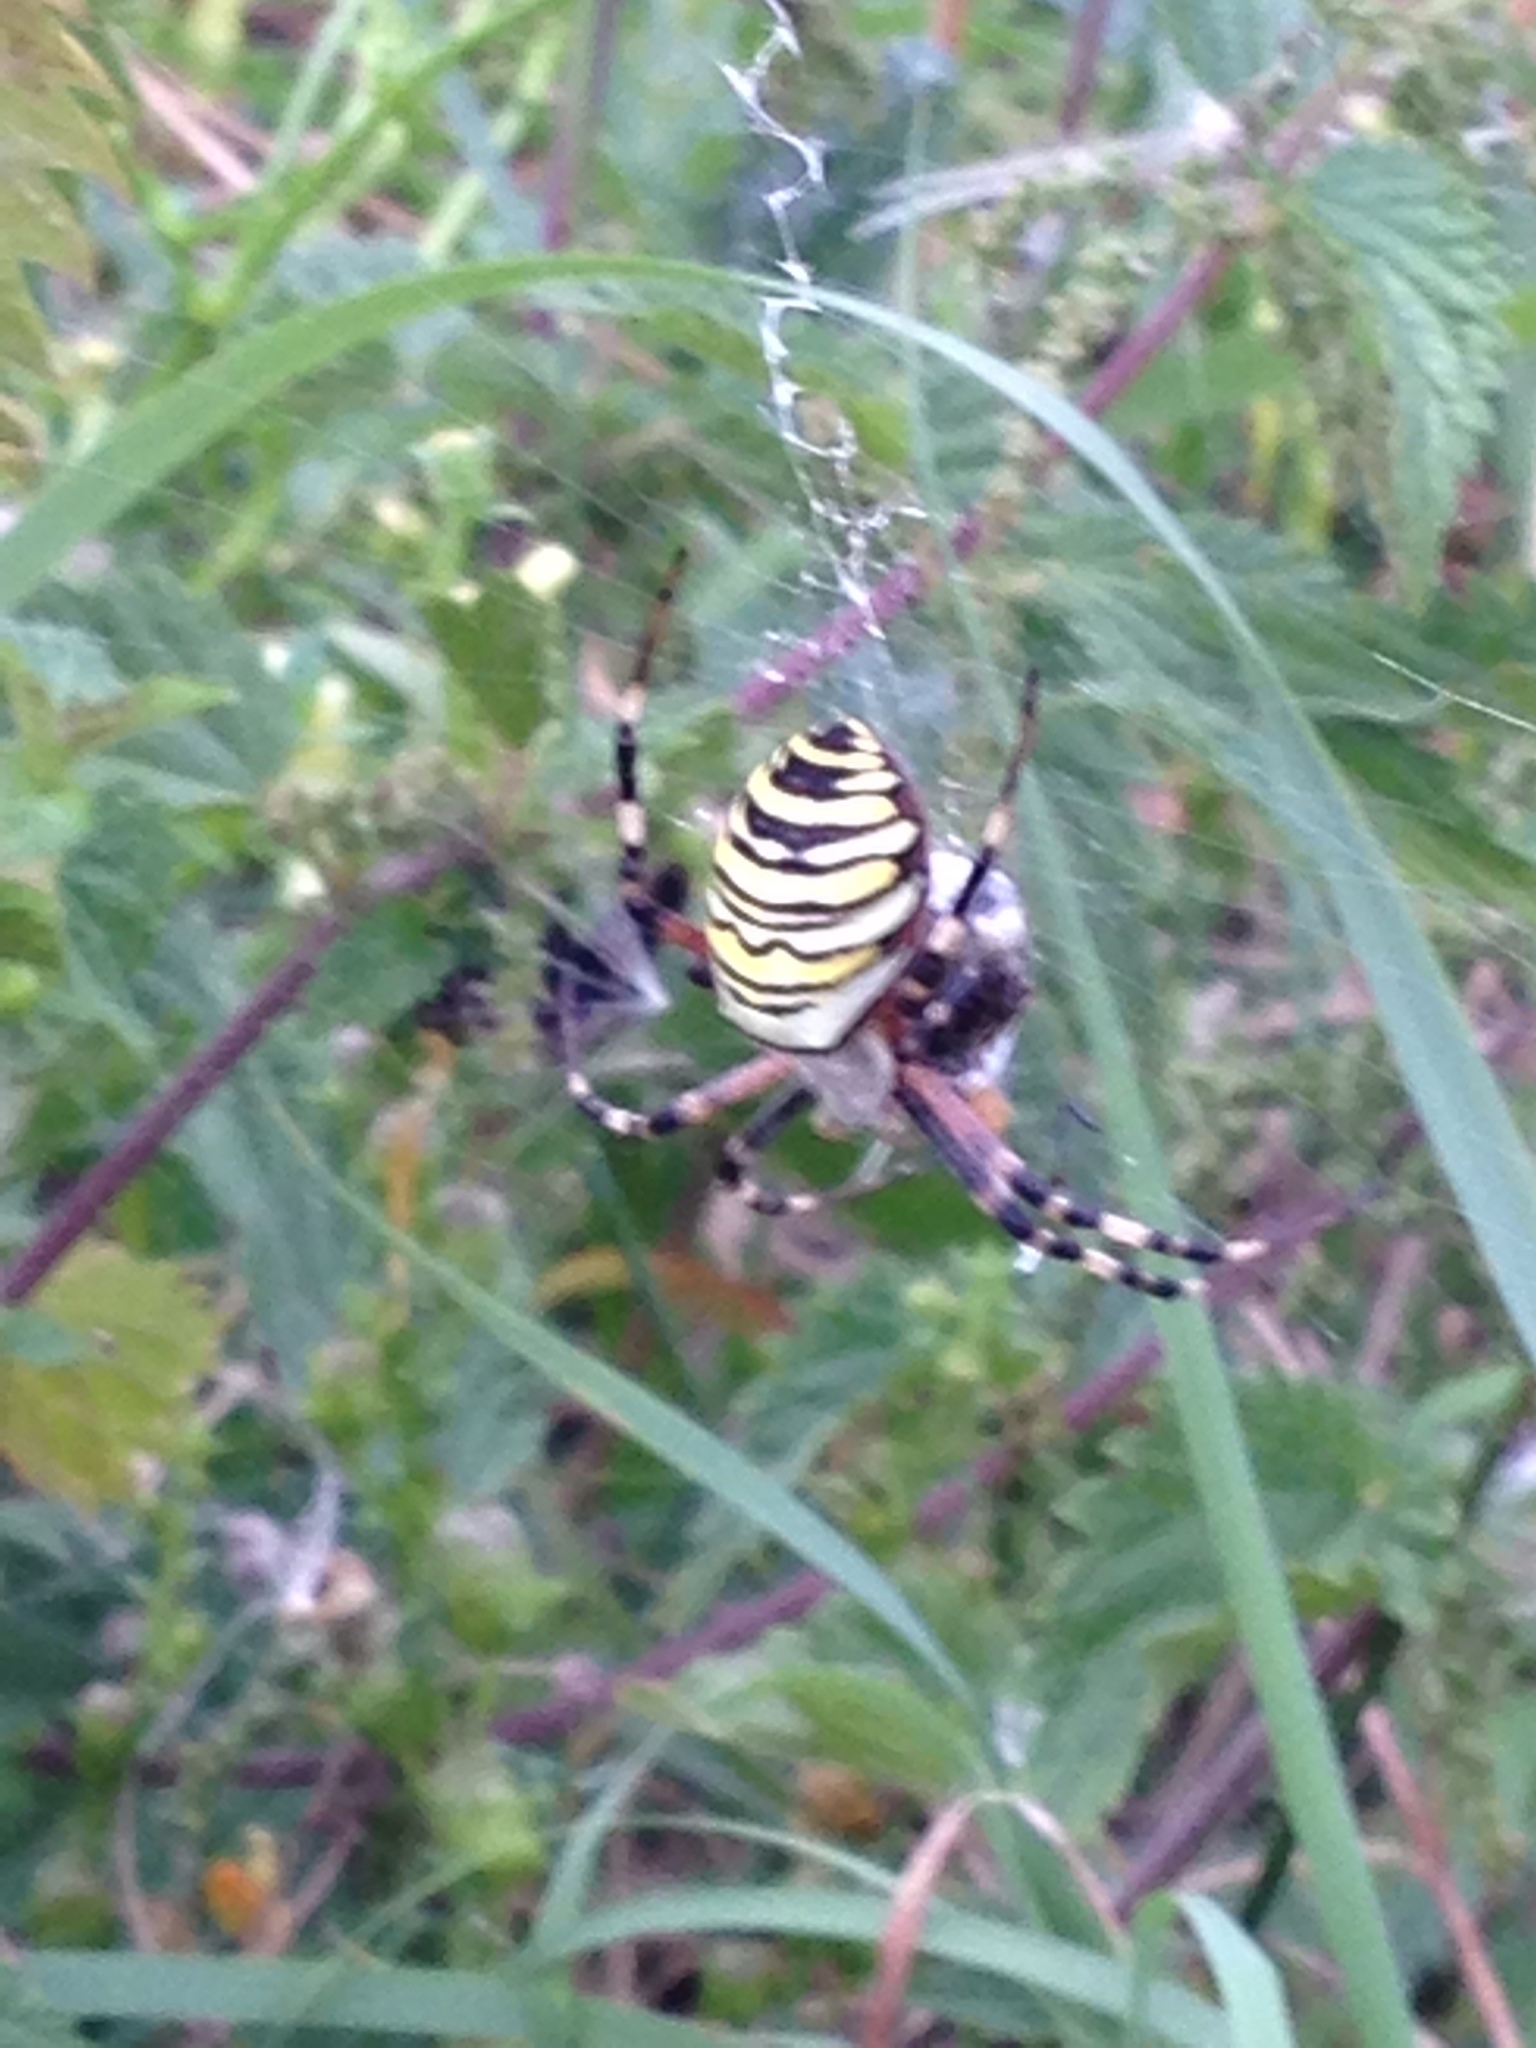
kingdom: Animalia
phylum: Arthropoda
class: Arachnida
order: Araneae
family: Araneidae
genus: Argiope
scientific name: Argiope bruennichi
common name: Wasp spider
